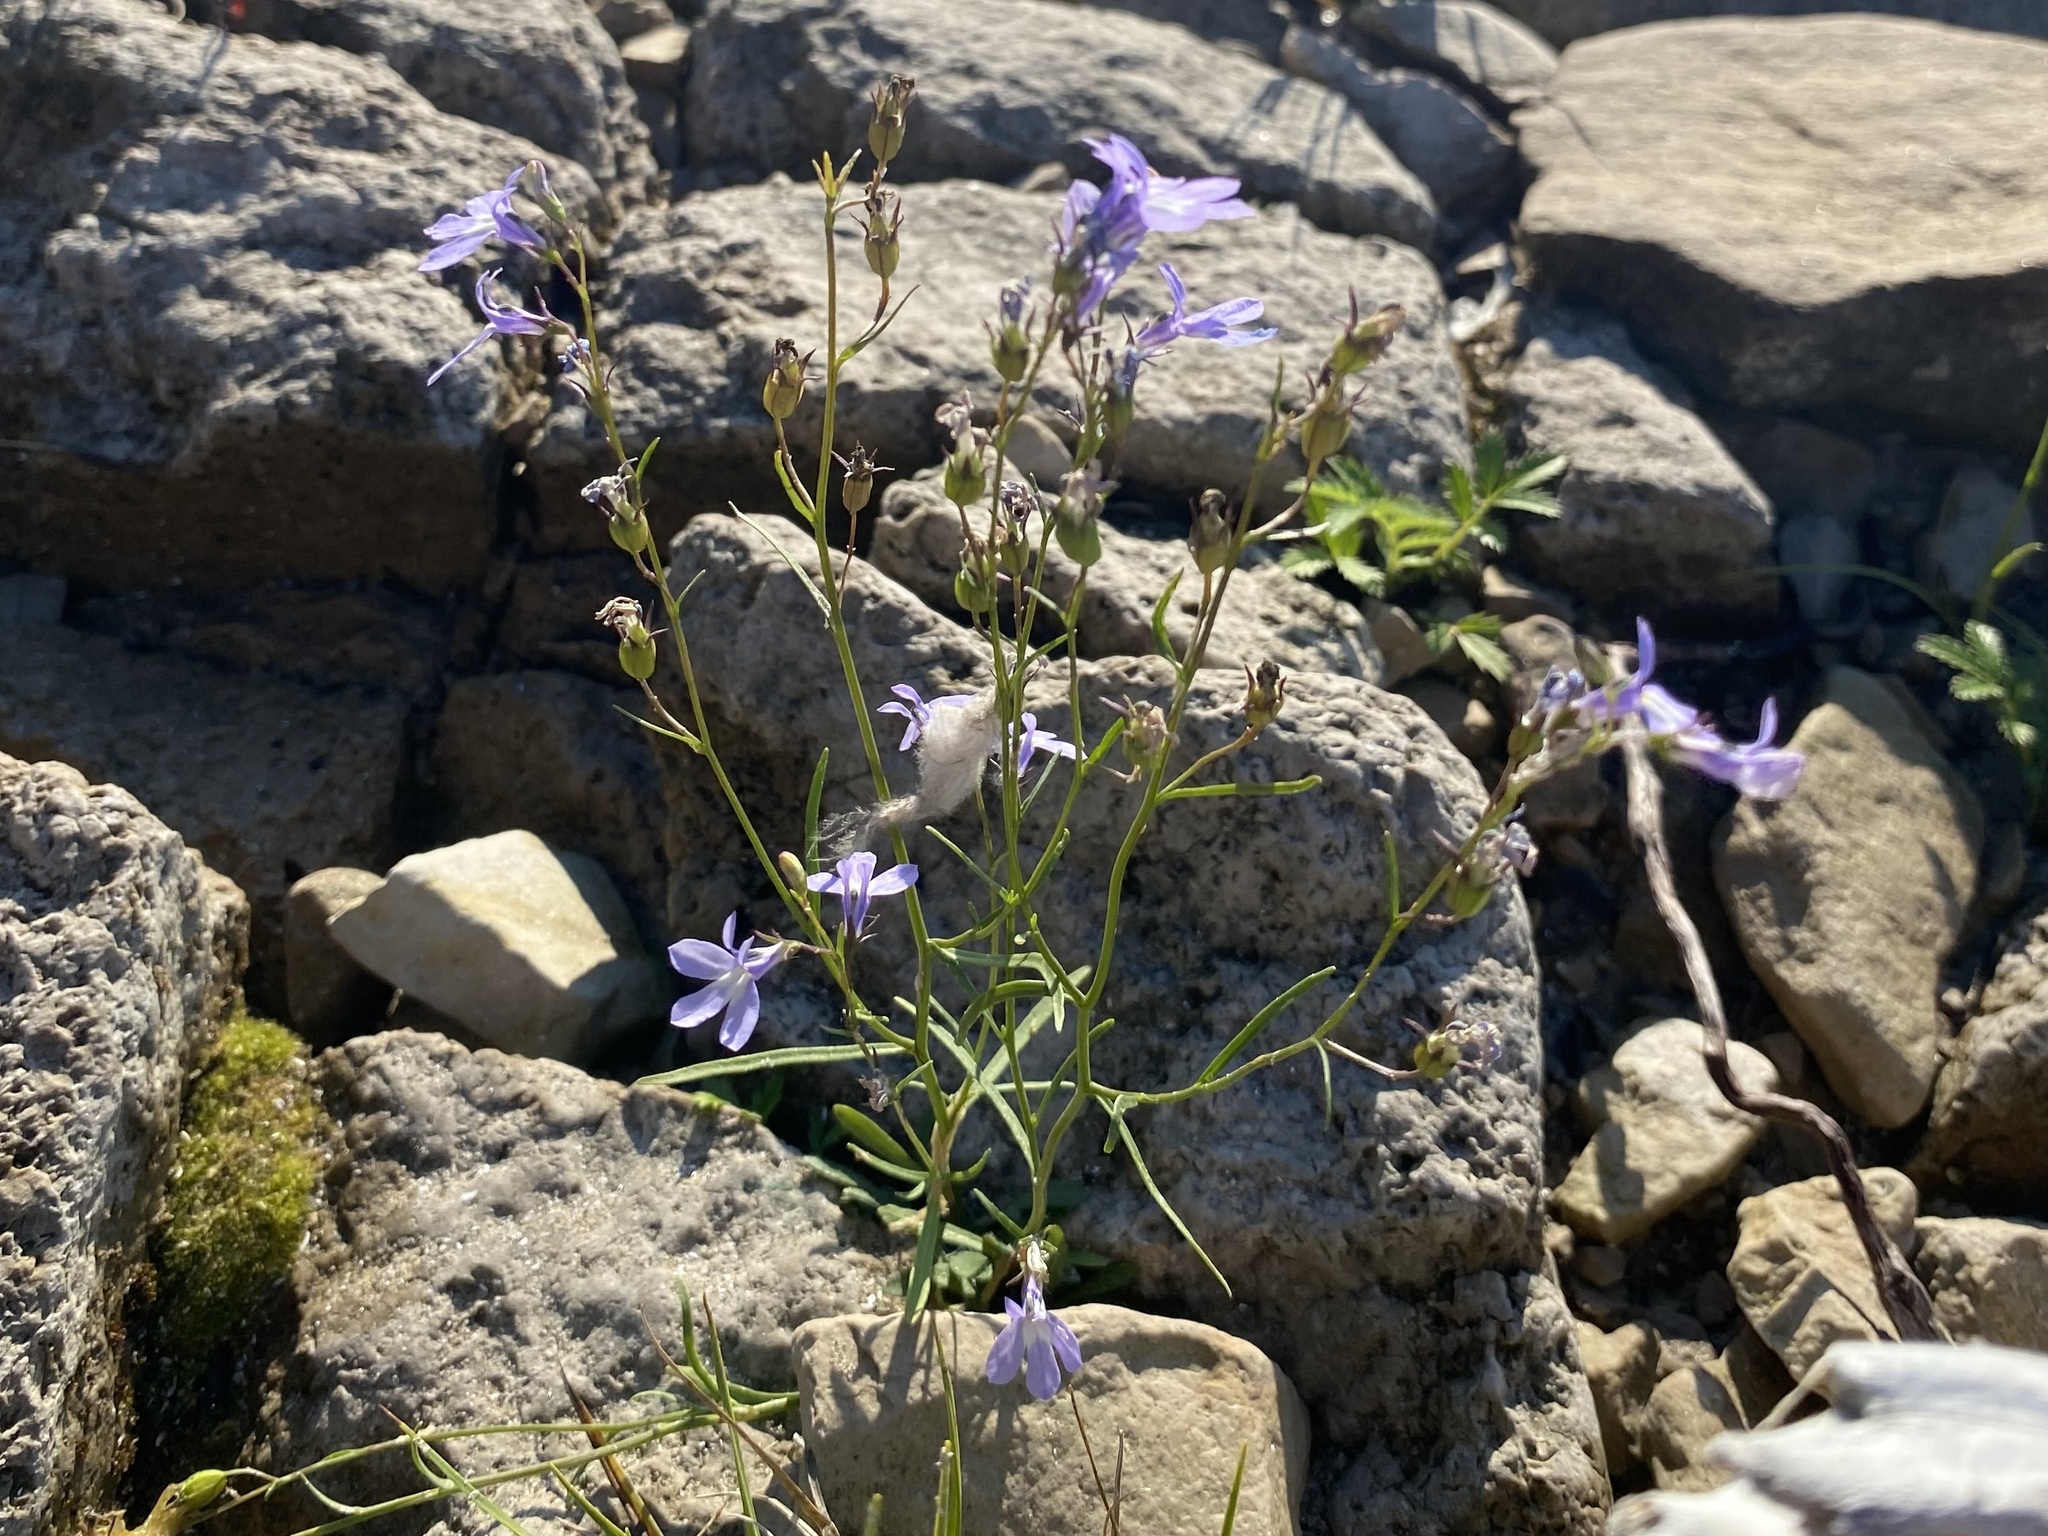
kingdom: Plantae
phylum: Tracheophyta
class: Magnoliopsida
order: Asterales
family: Campanulaceae
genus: Lobelia
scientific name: Lobelia kalmii
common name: Kalm's lobelia
